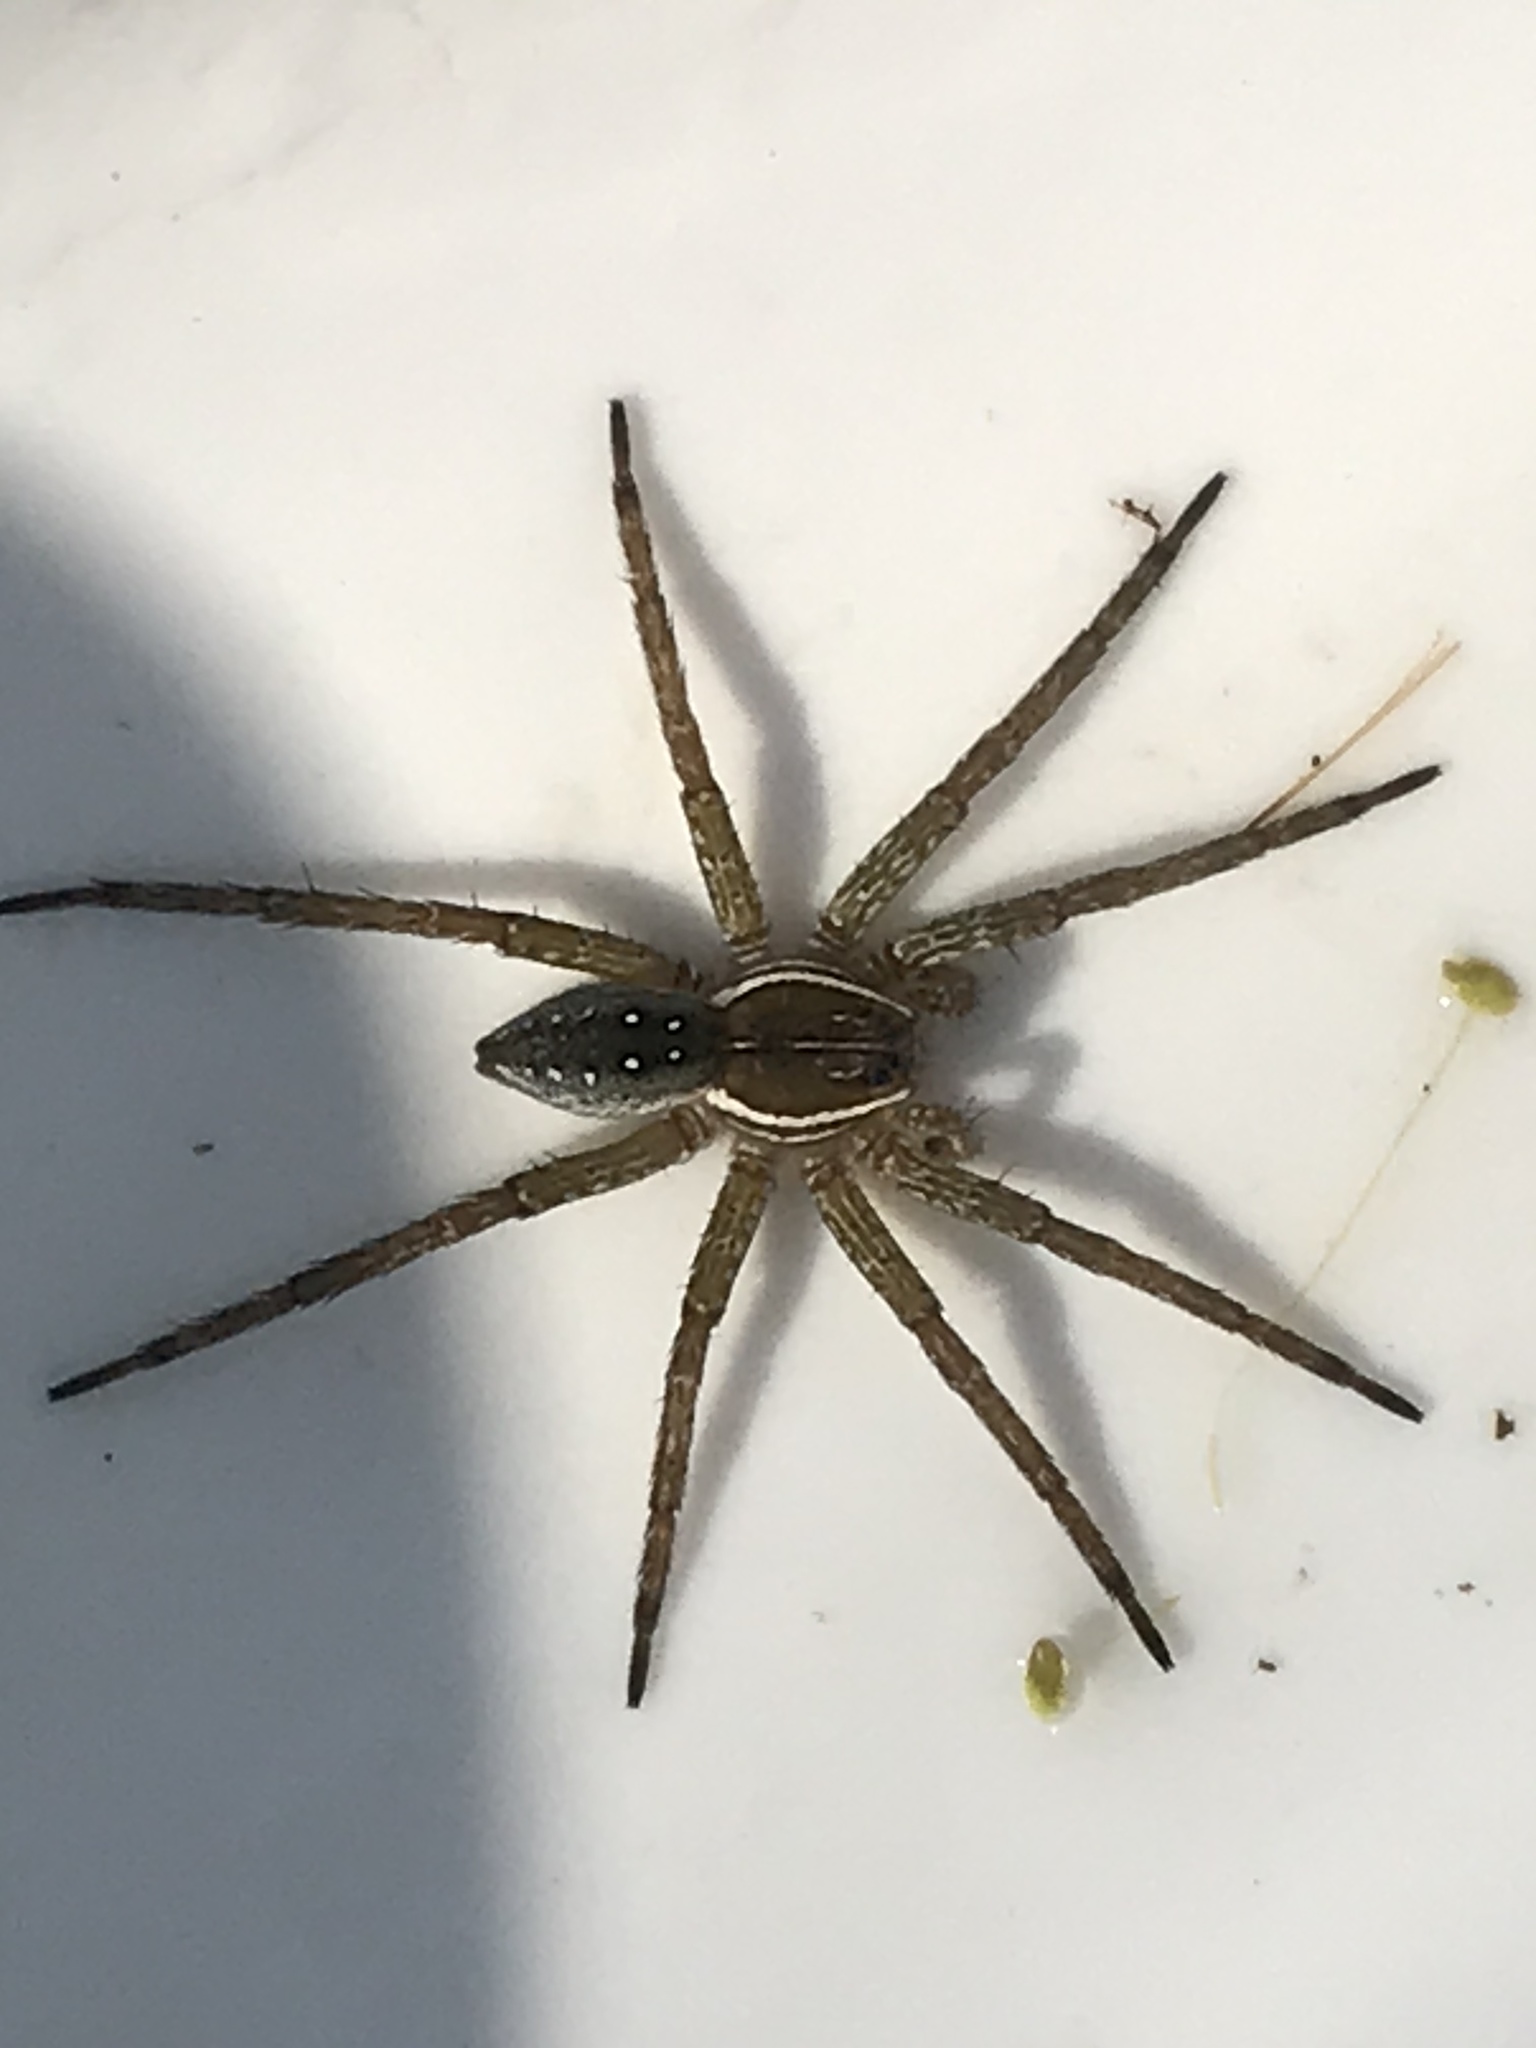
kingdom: Animalia
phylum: Arthropoda
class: Arachnida
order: Araneae
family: Pisauridae
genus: Dolomedes
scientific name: Dolomedes triton
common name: Six-spotted fishing spider
